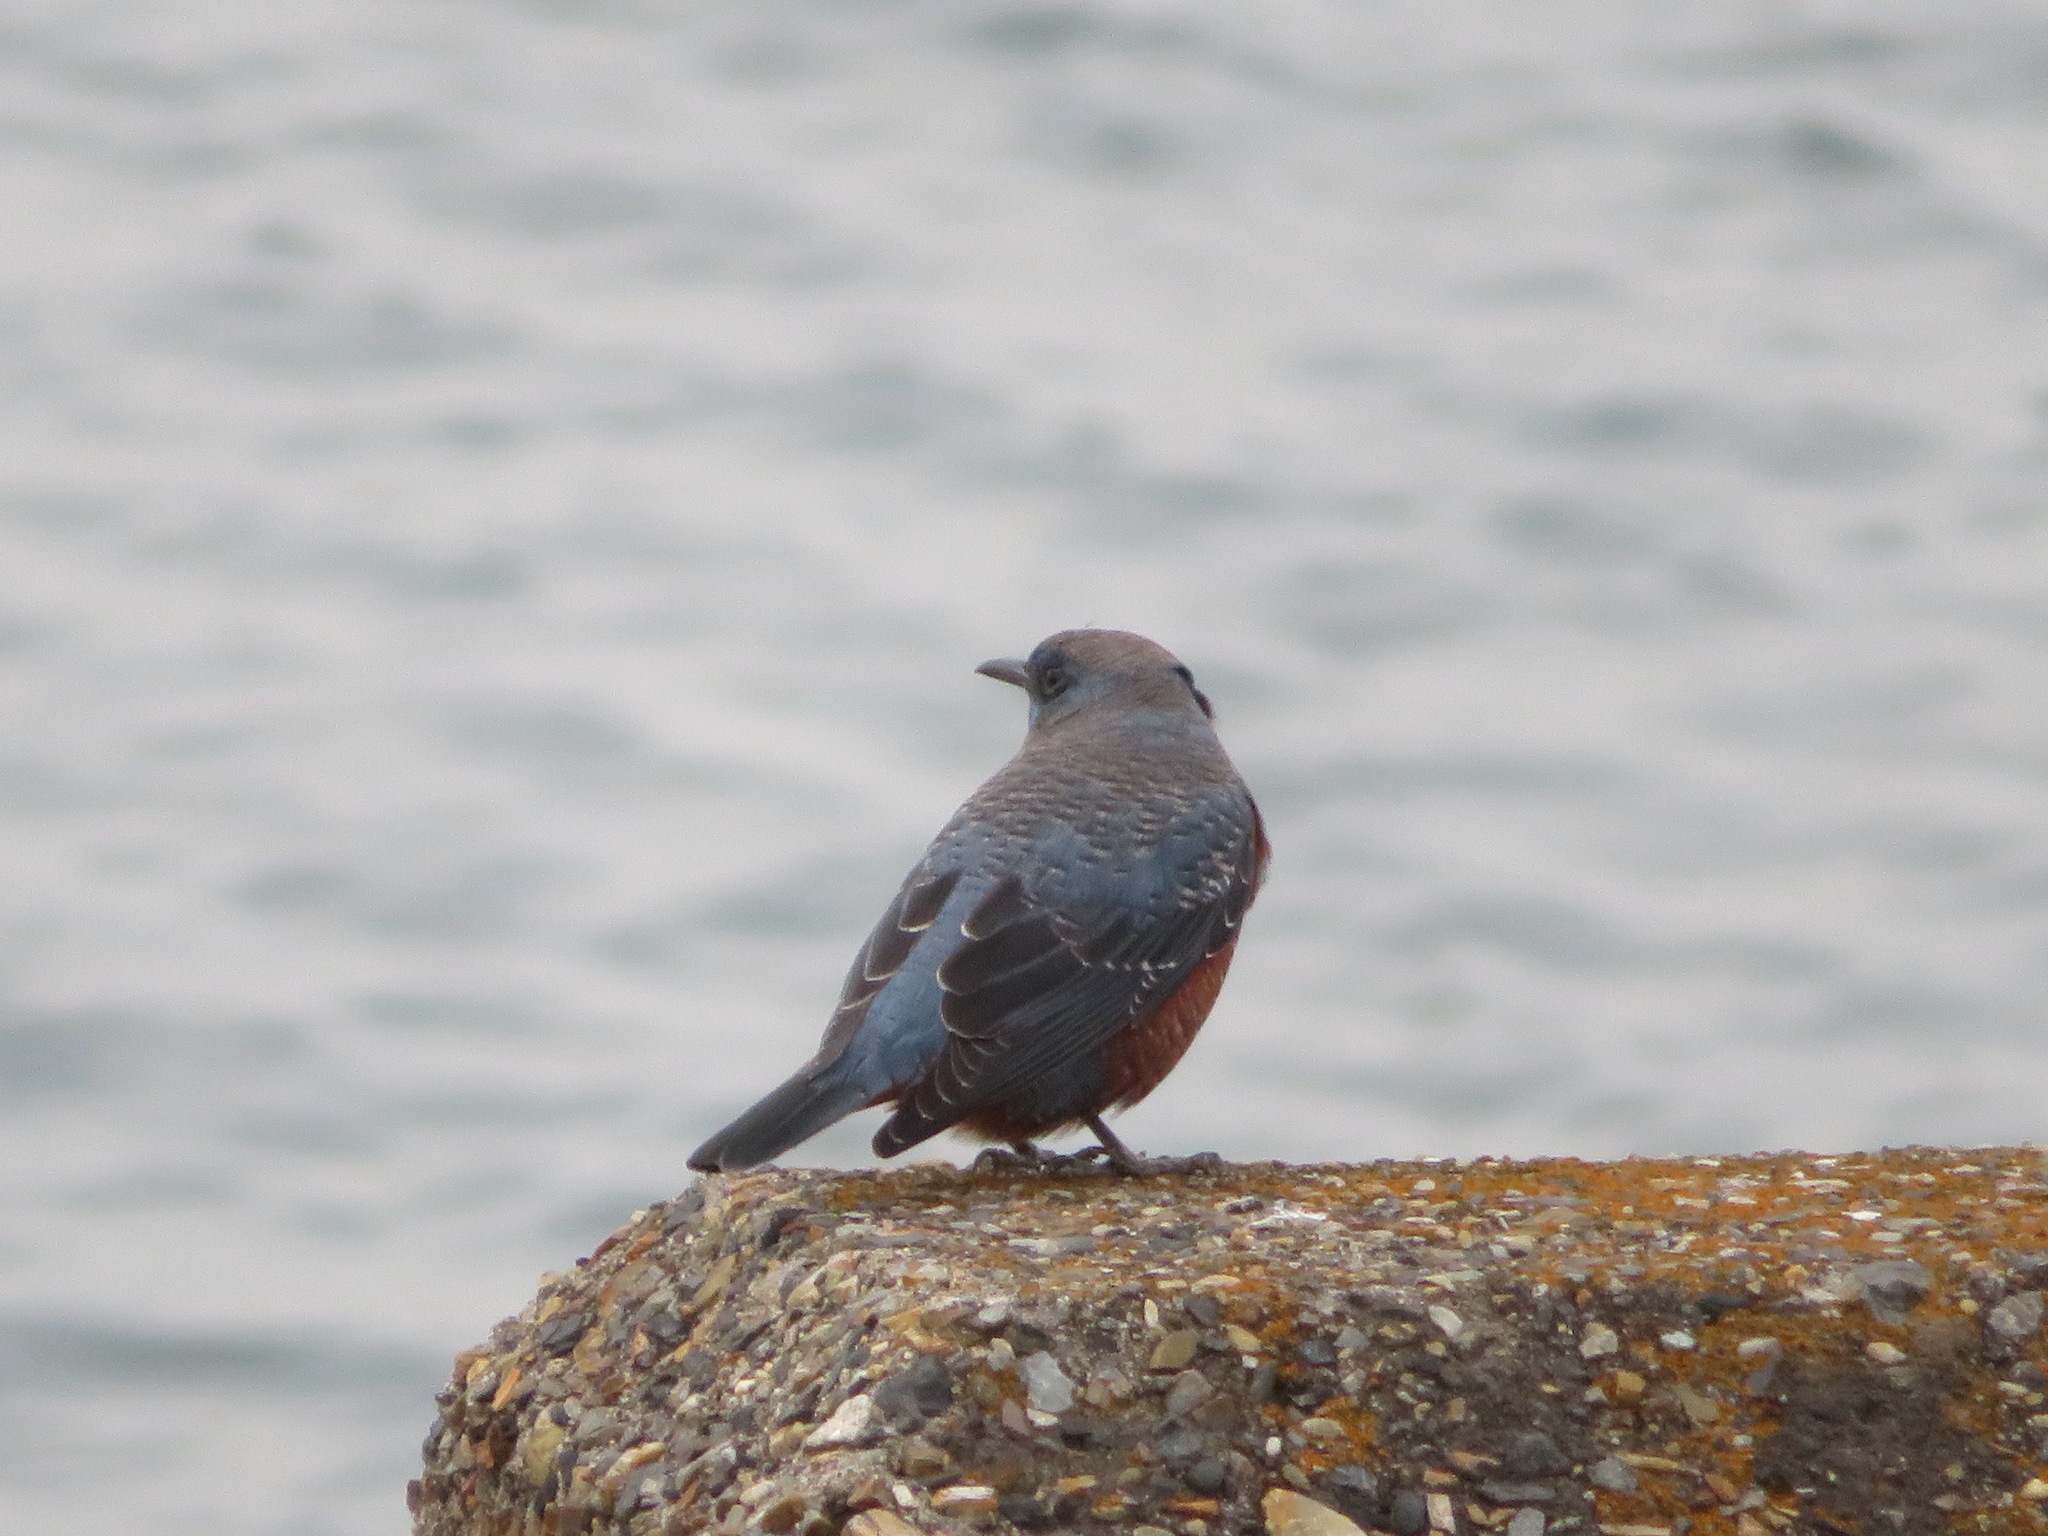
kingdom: Animalia
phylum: Chordata
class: Aves
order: Passeriformes
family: Muscicapidae
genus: Monticola
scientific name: Monticola solitarius
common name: Blue rock thrush
